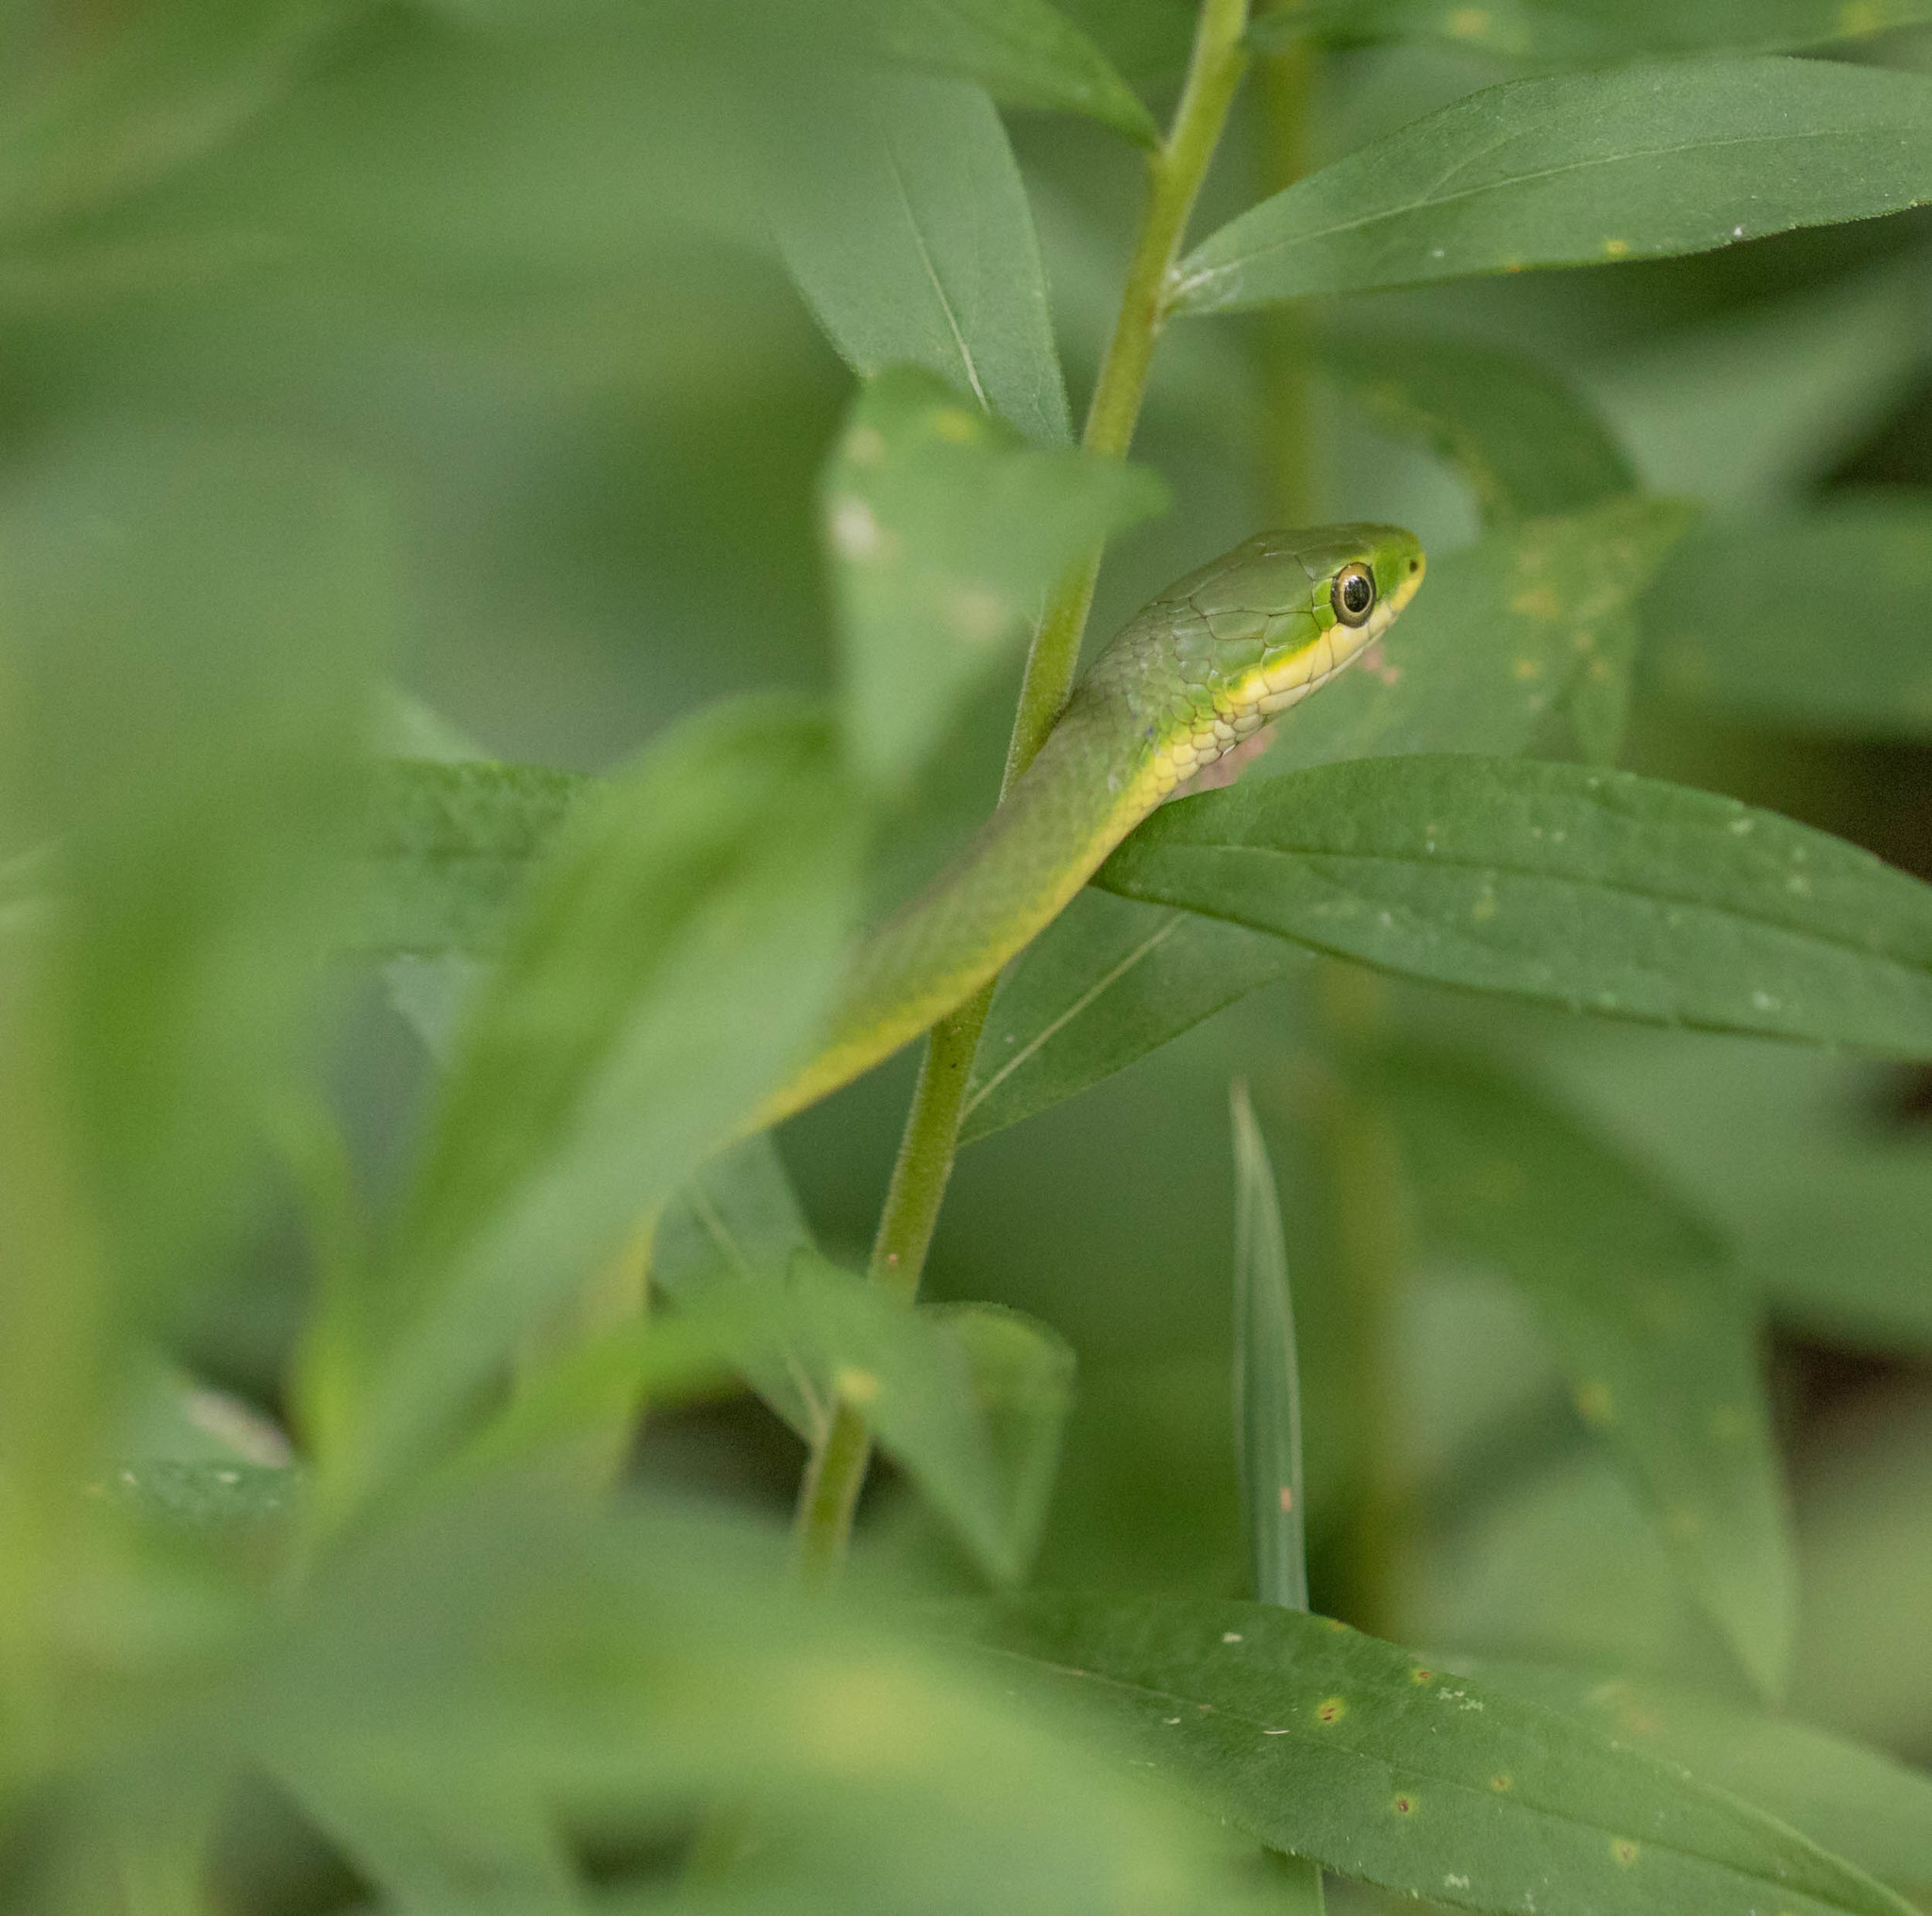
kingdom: Animalia
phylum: Chordata
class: Squamata
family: Colubridae
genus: Opheodrys
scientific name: Opheodrys aestivus
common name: Rough greensnake
